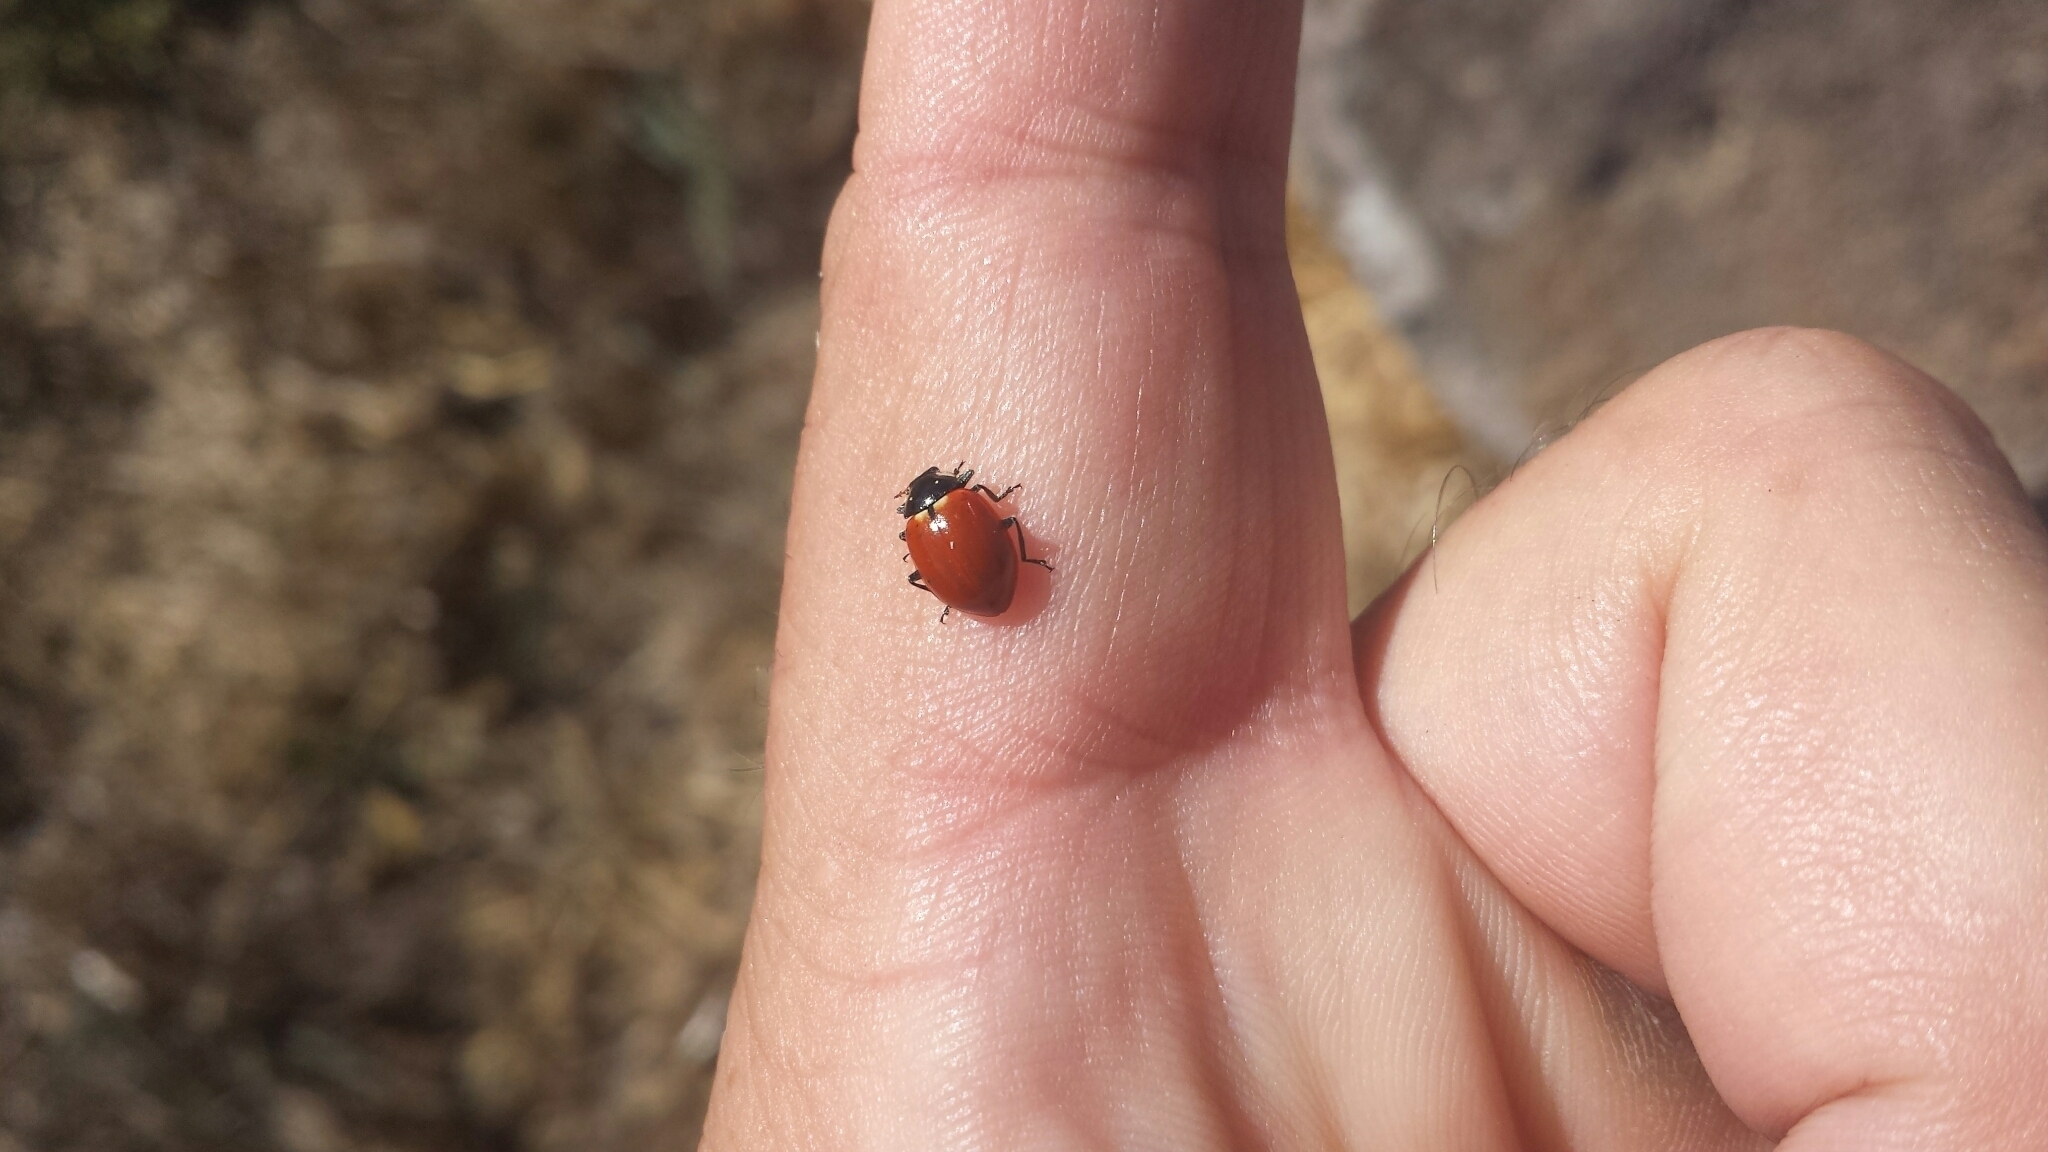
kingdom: Animalia
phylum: Arthropoda
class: Insecta
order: Coleoptera
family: Coccinellidae
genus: Hippodamia
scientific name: Hippodamia quinquesignata
